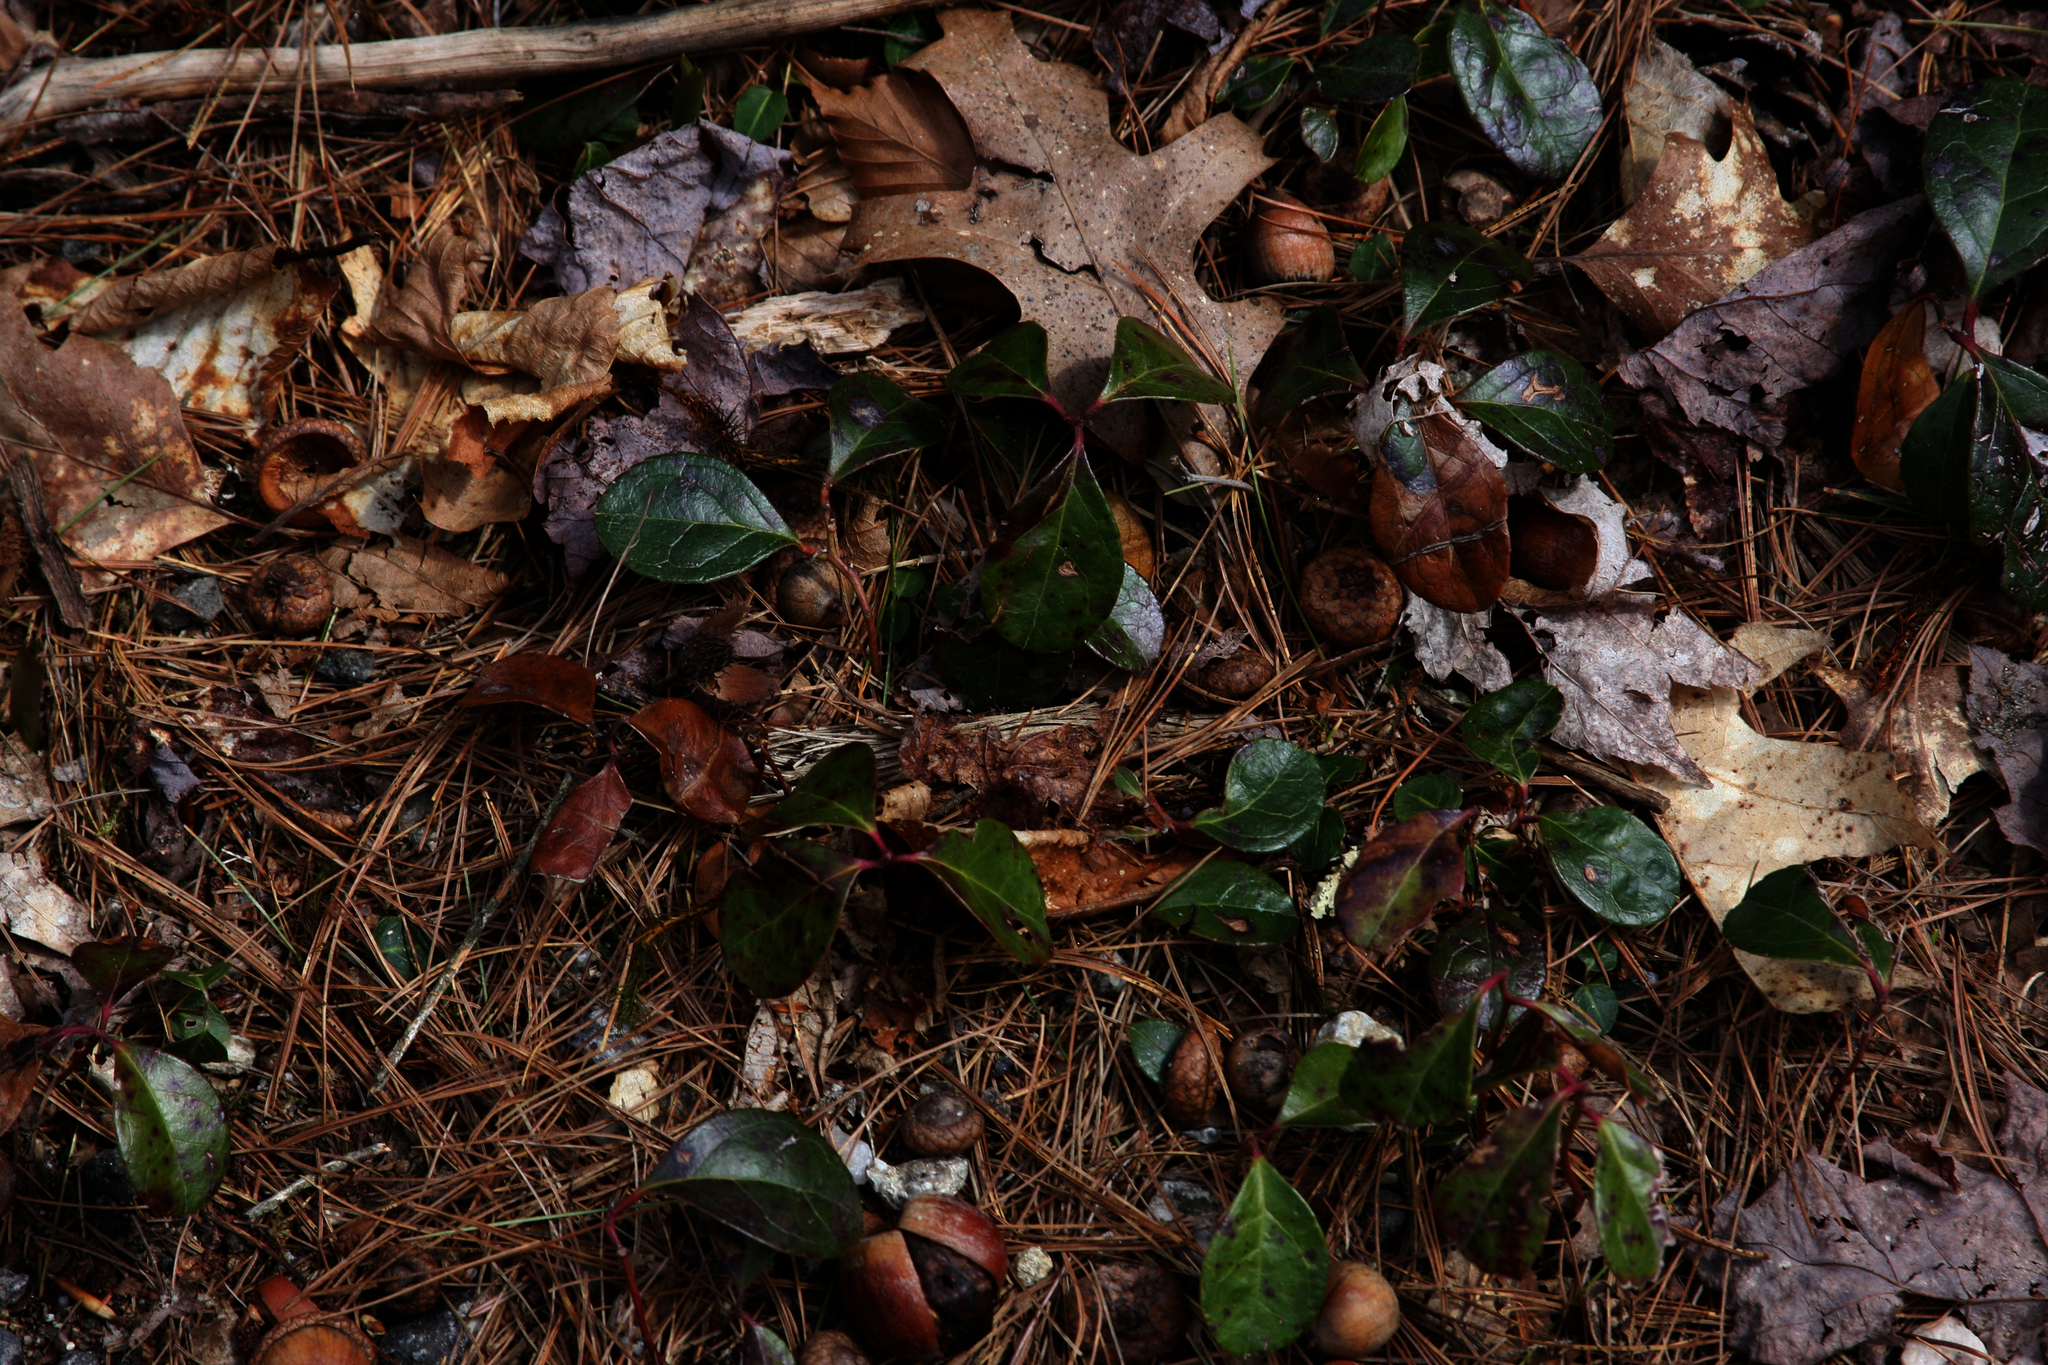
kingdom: Plantae
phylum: Tracheophyta
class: Magnoliopsida
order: Ericales
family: Ericaceae
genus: Gaultheria
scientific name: Gaultheria procumbens
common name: Checkerberry
